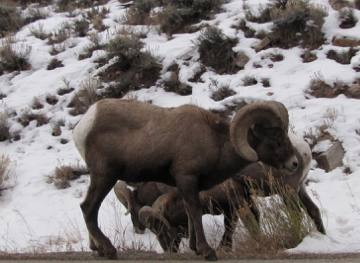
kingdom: Animalia
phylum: Chordata
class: Mammalia
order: Artiodactyla
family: Bovidae
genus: Ovis
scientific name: Ovis canadensis
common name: Bighorn sheep
